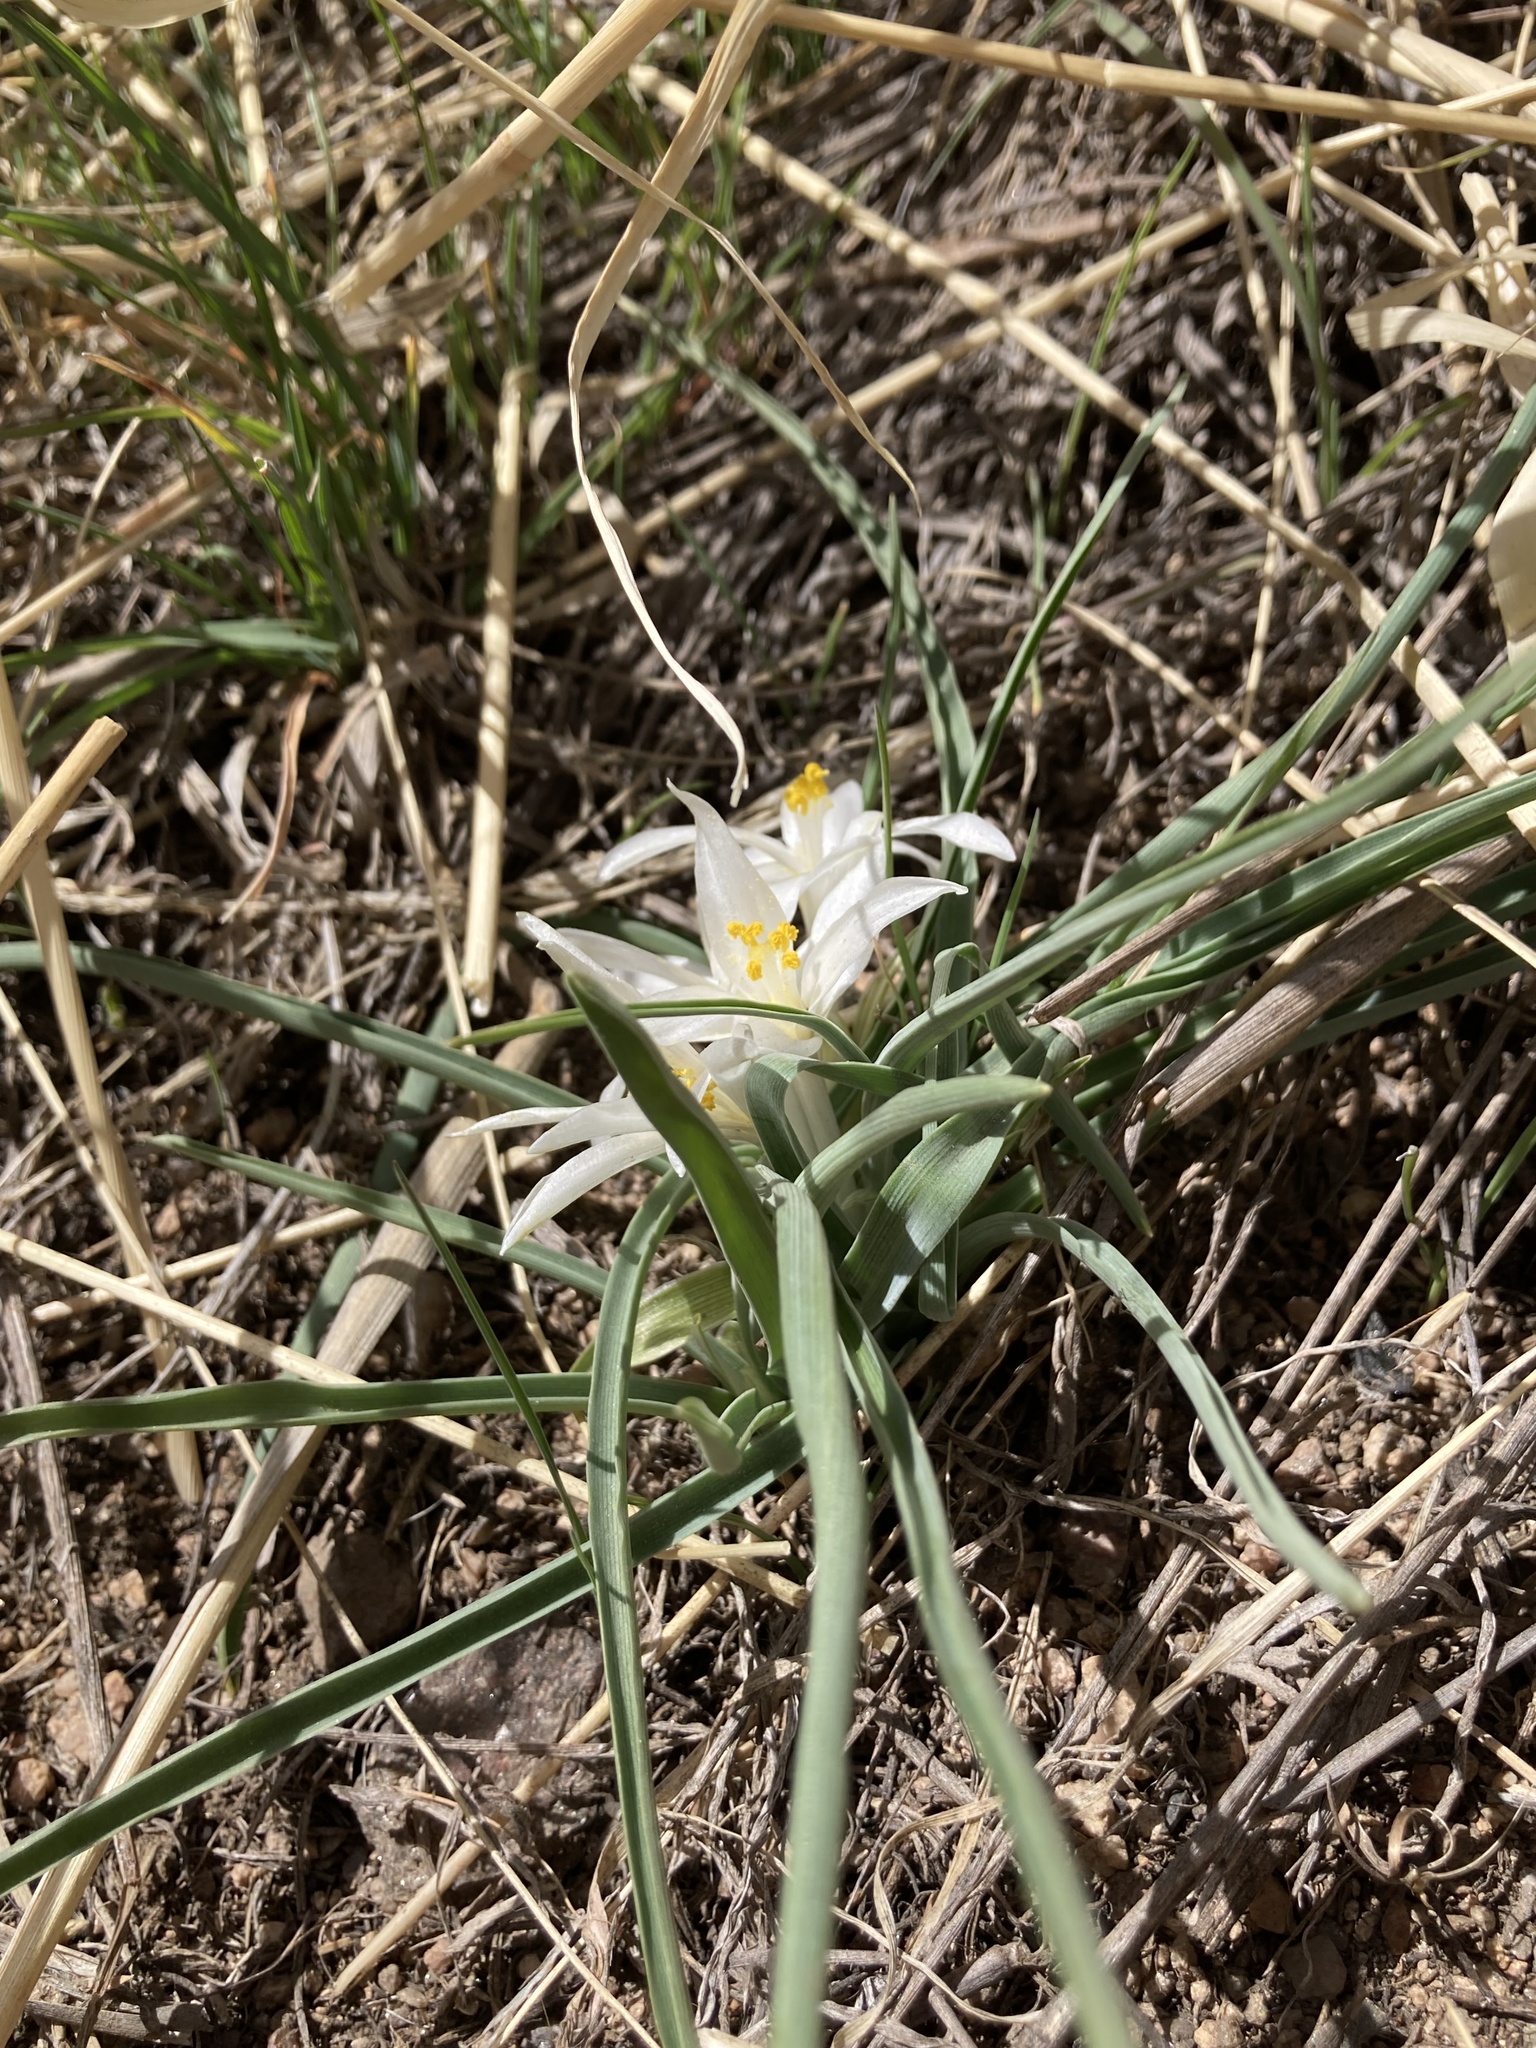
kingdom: Plantae
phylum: Tracheophyta
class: Liliopsida
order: Asparagales
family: Asparagaceae
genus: Leucocrinum
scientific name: Leucocrinum montanum
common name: Mountain-lily
